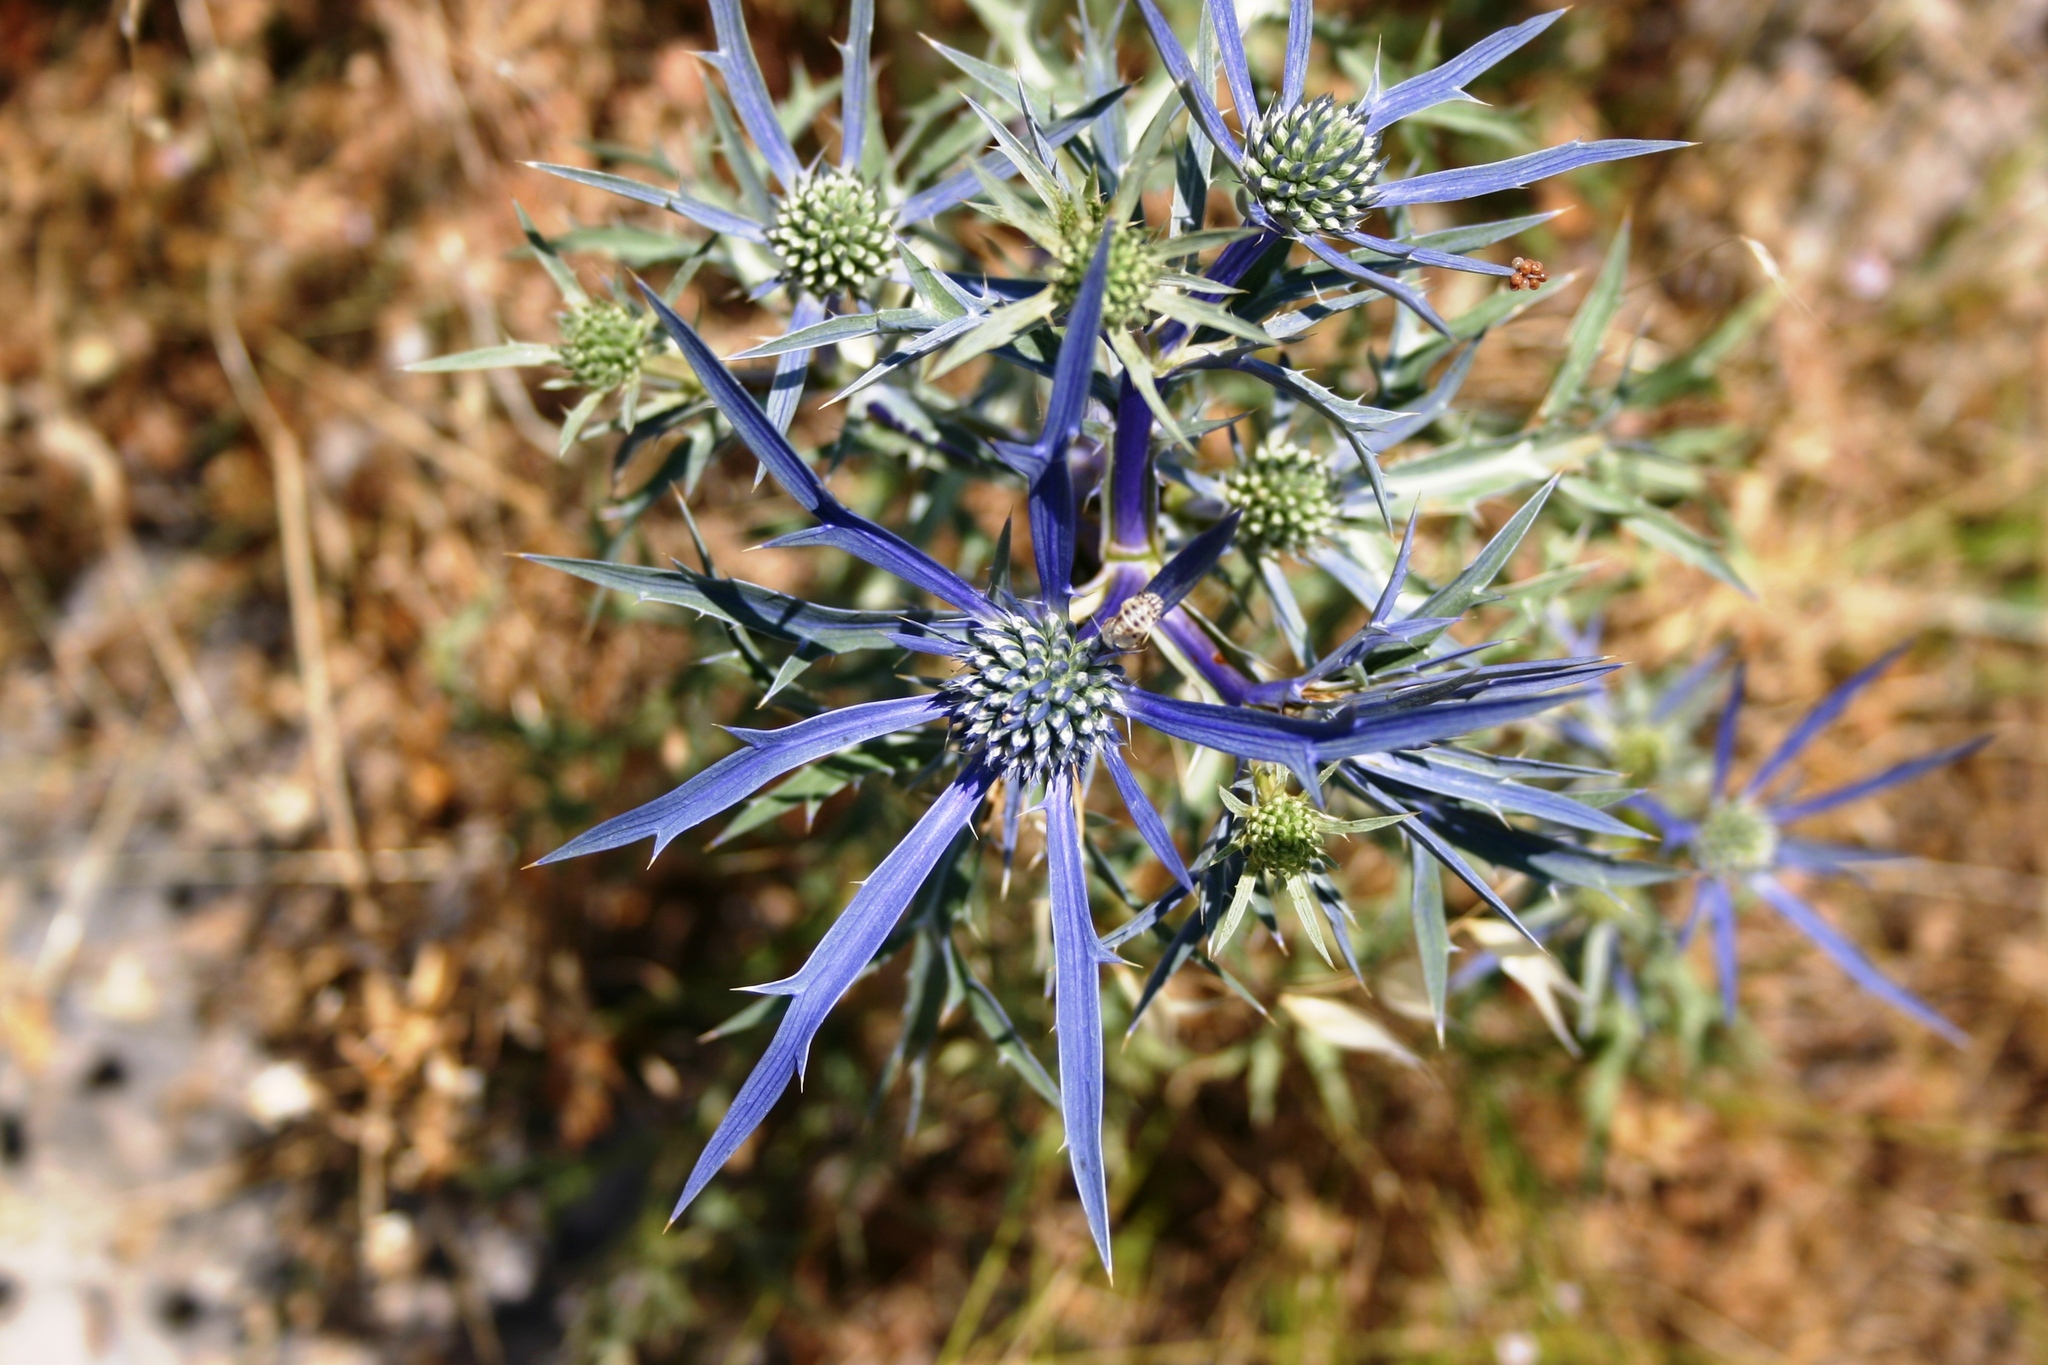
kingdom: Plantae
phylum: Tracheophyta
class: Magnoliopsida
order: Apiales
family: Apiaceae
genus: Eryngium
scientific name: Eryngium amethystinum
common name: Amethyst eryngo
